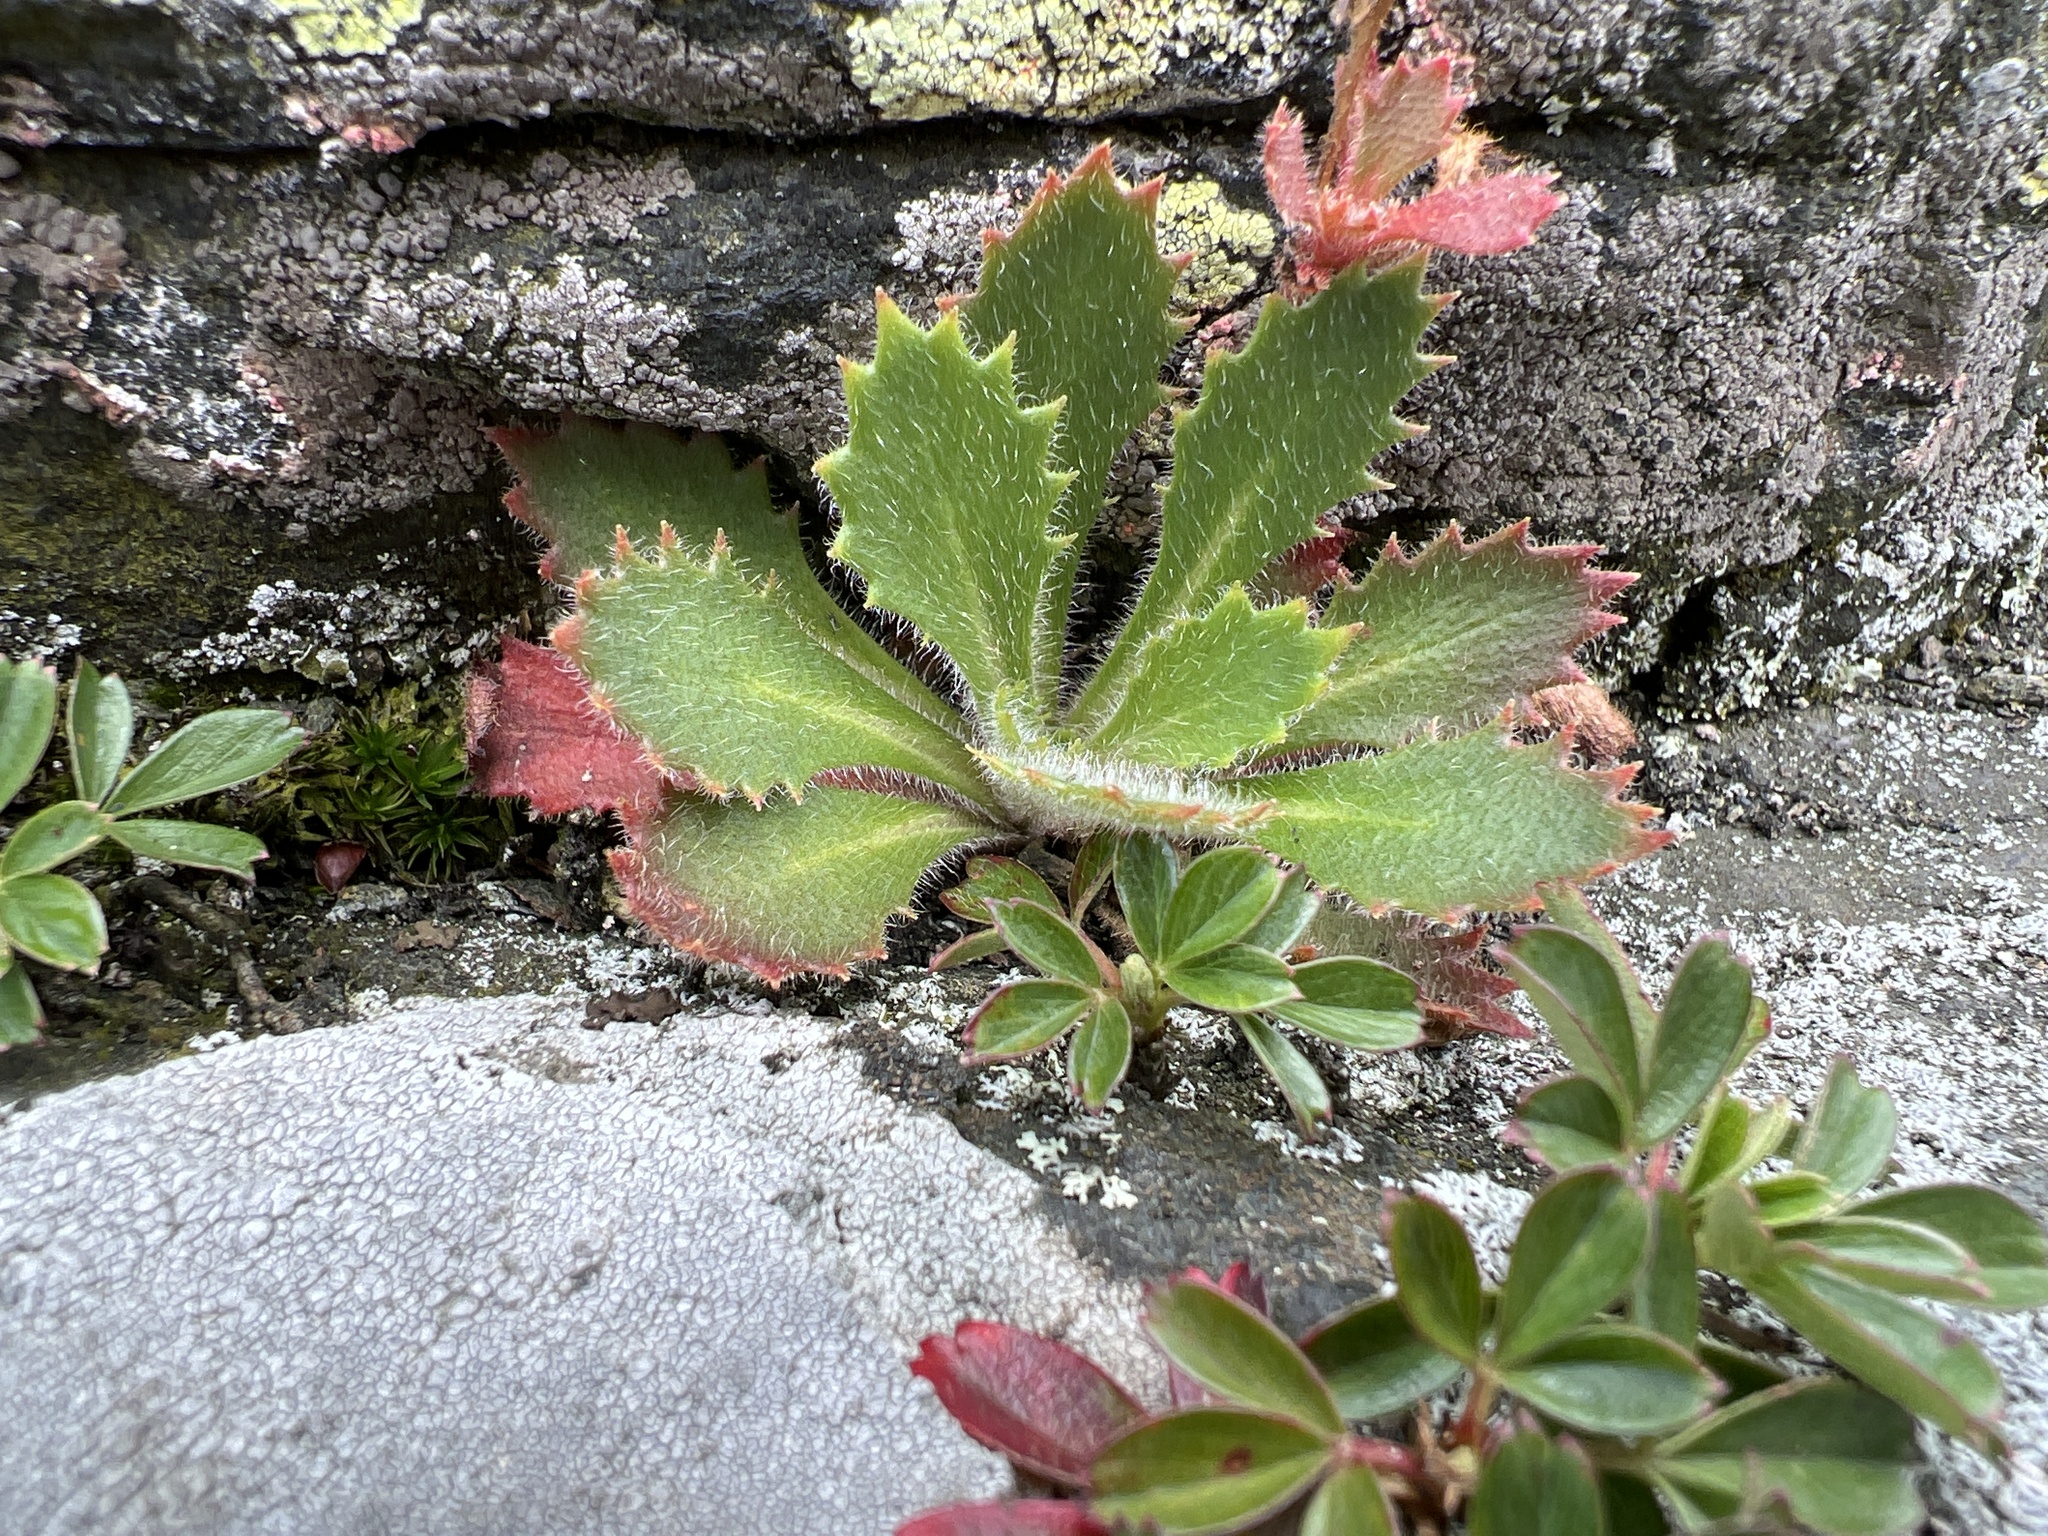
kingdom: Plantae
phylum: Tracheophyta
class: Magnoliopsida
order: Saxifragales
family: Saxifragaceae
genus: Micranthes
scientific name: Micranthes petiolaris
